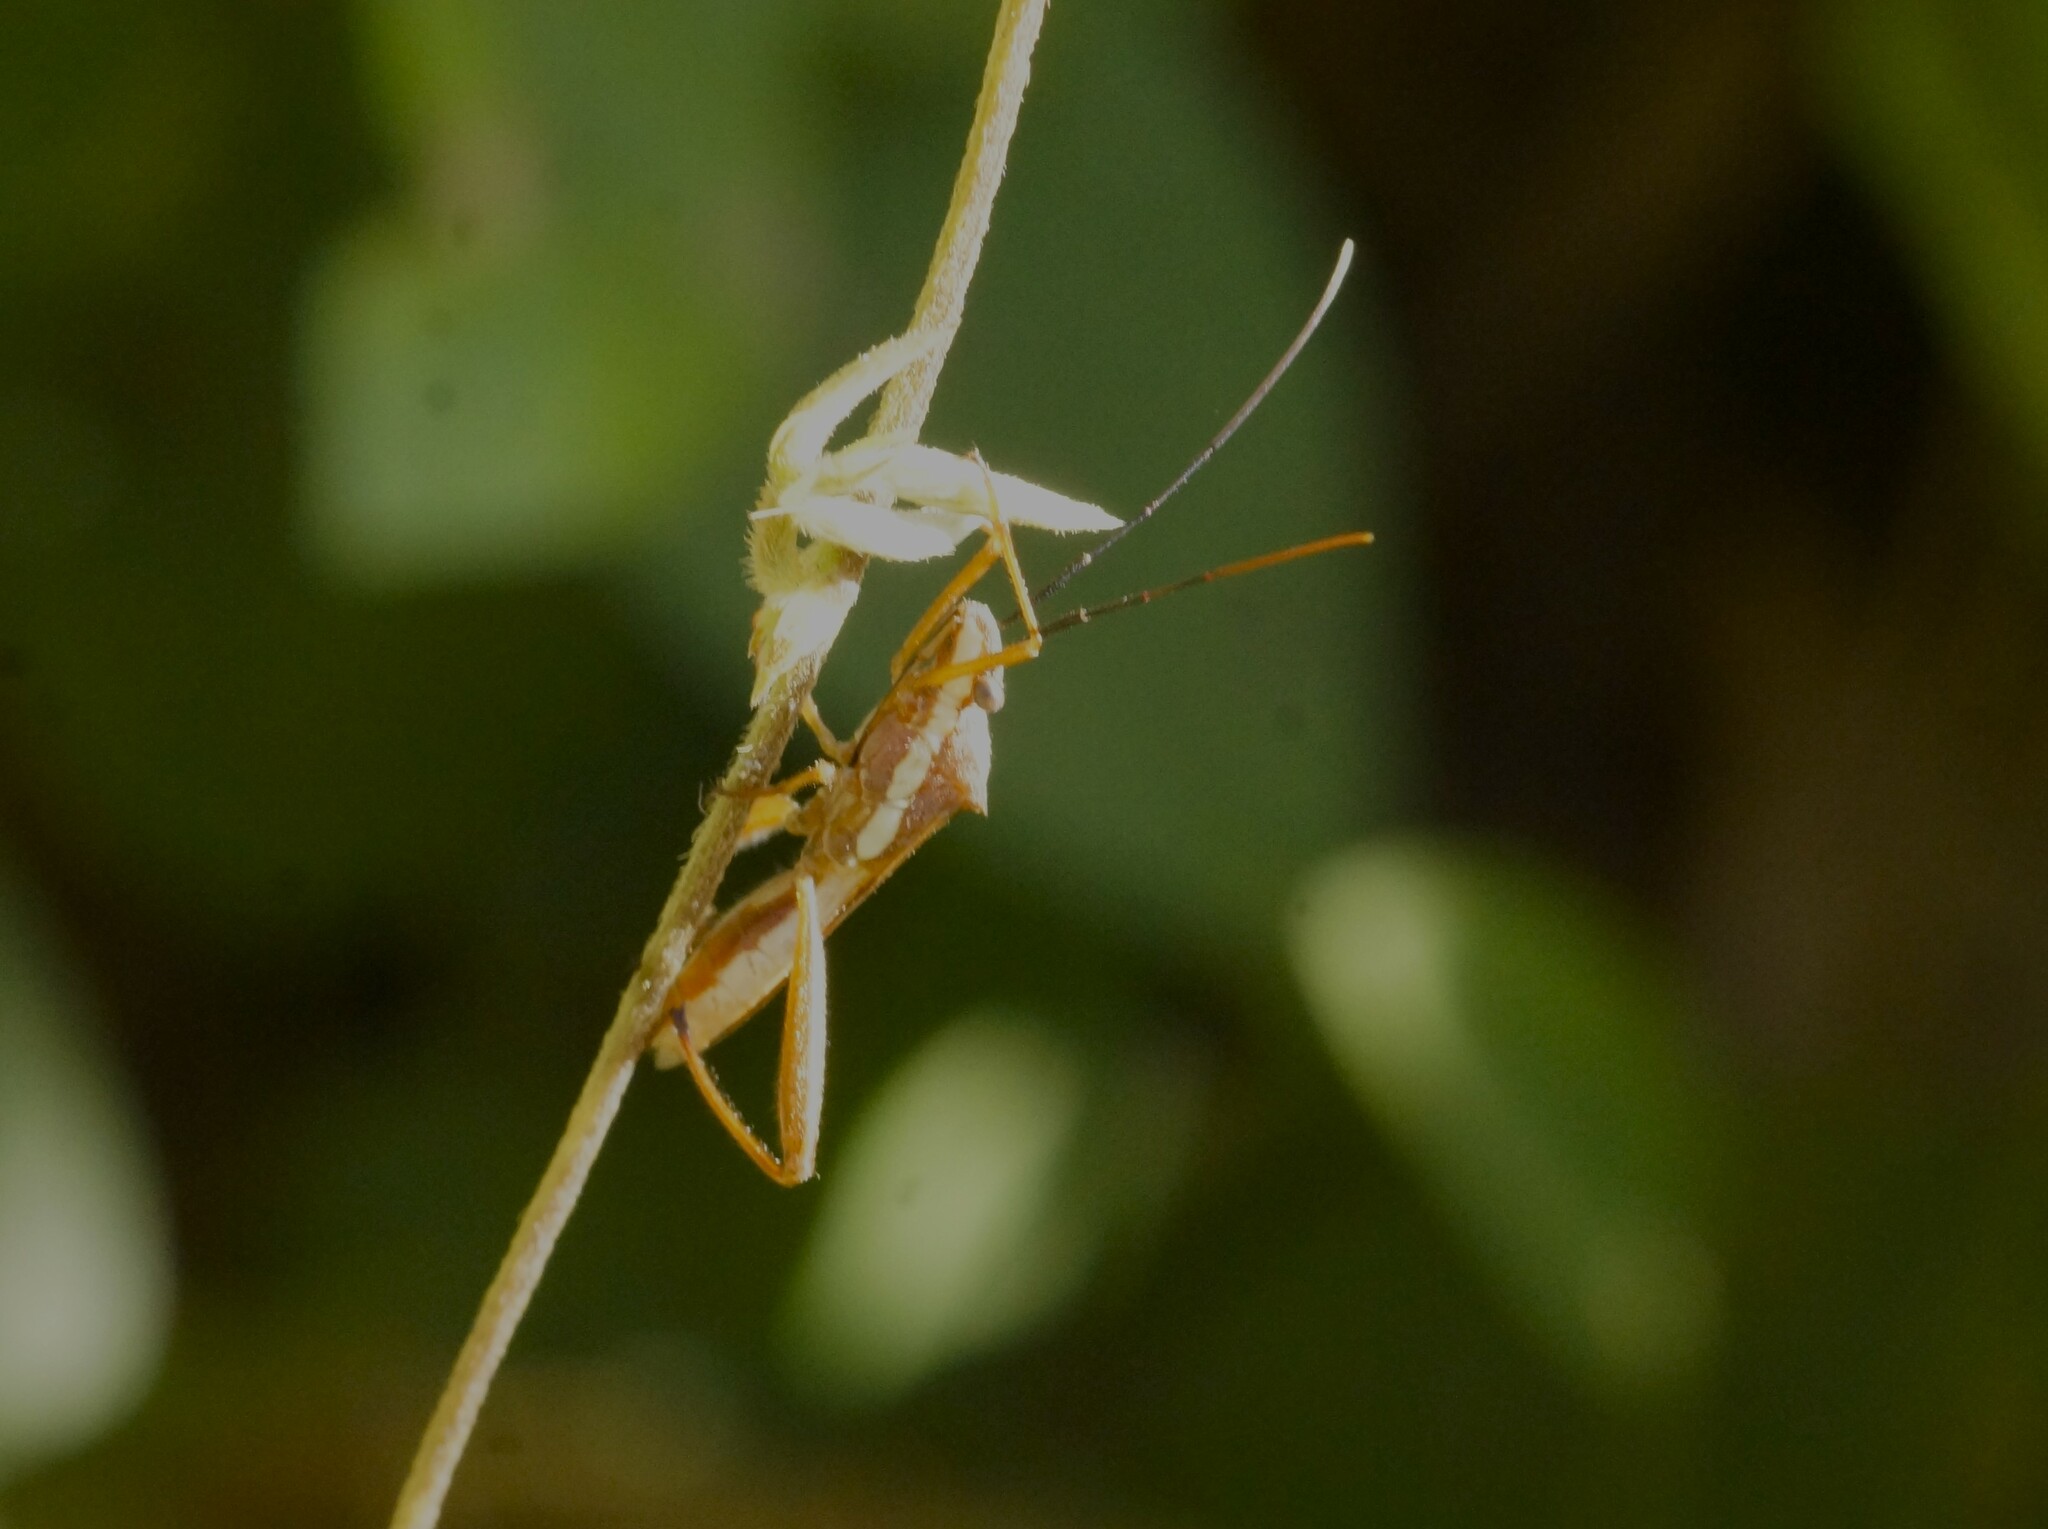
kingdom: Animalia
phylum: Arthropoda
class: Insecta
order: Hemiptera
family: Alydidae
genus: Riptortus
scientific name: Riptortus linearis
